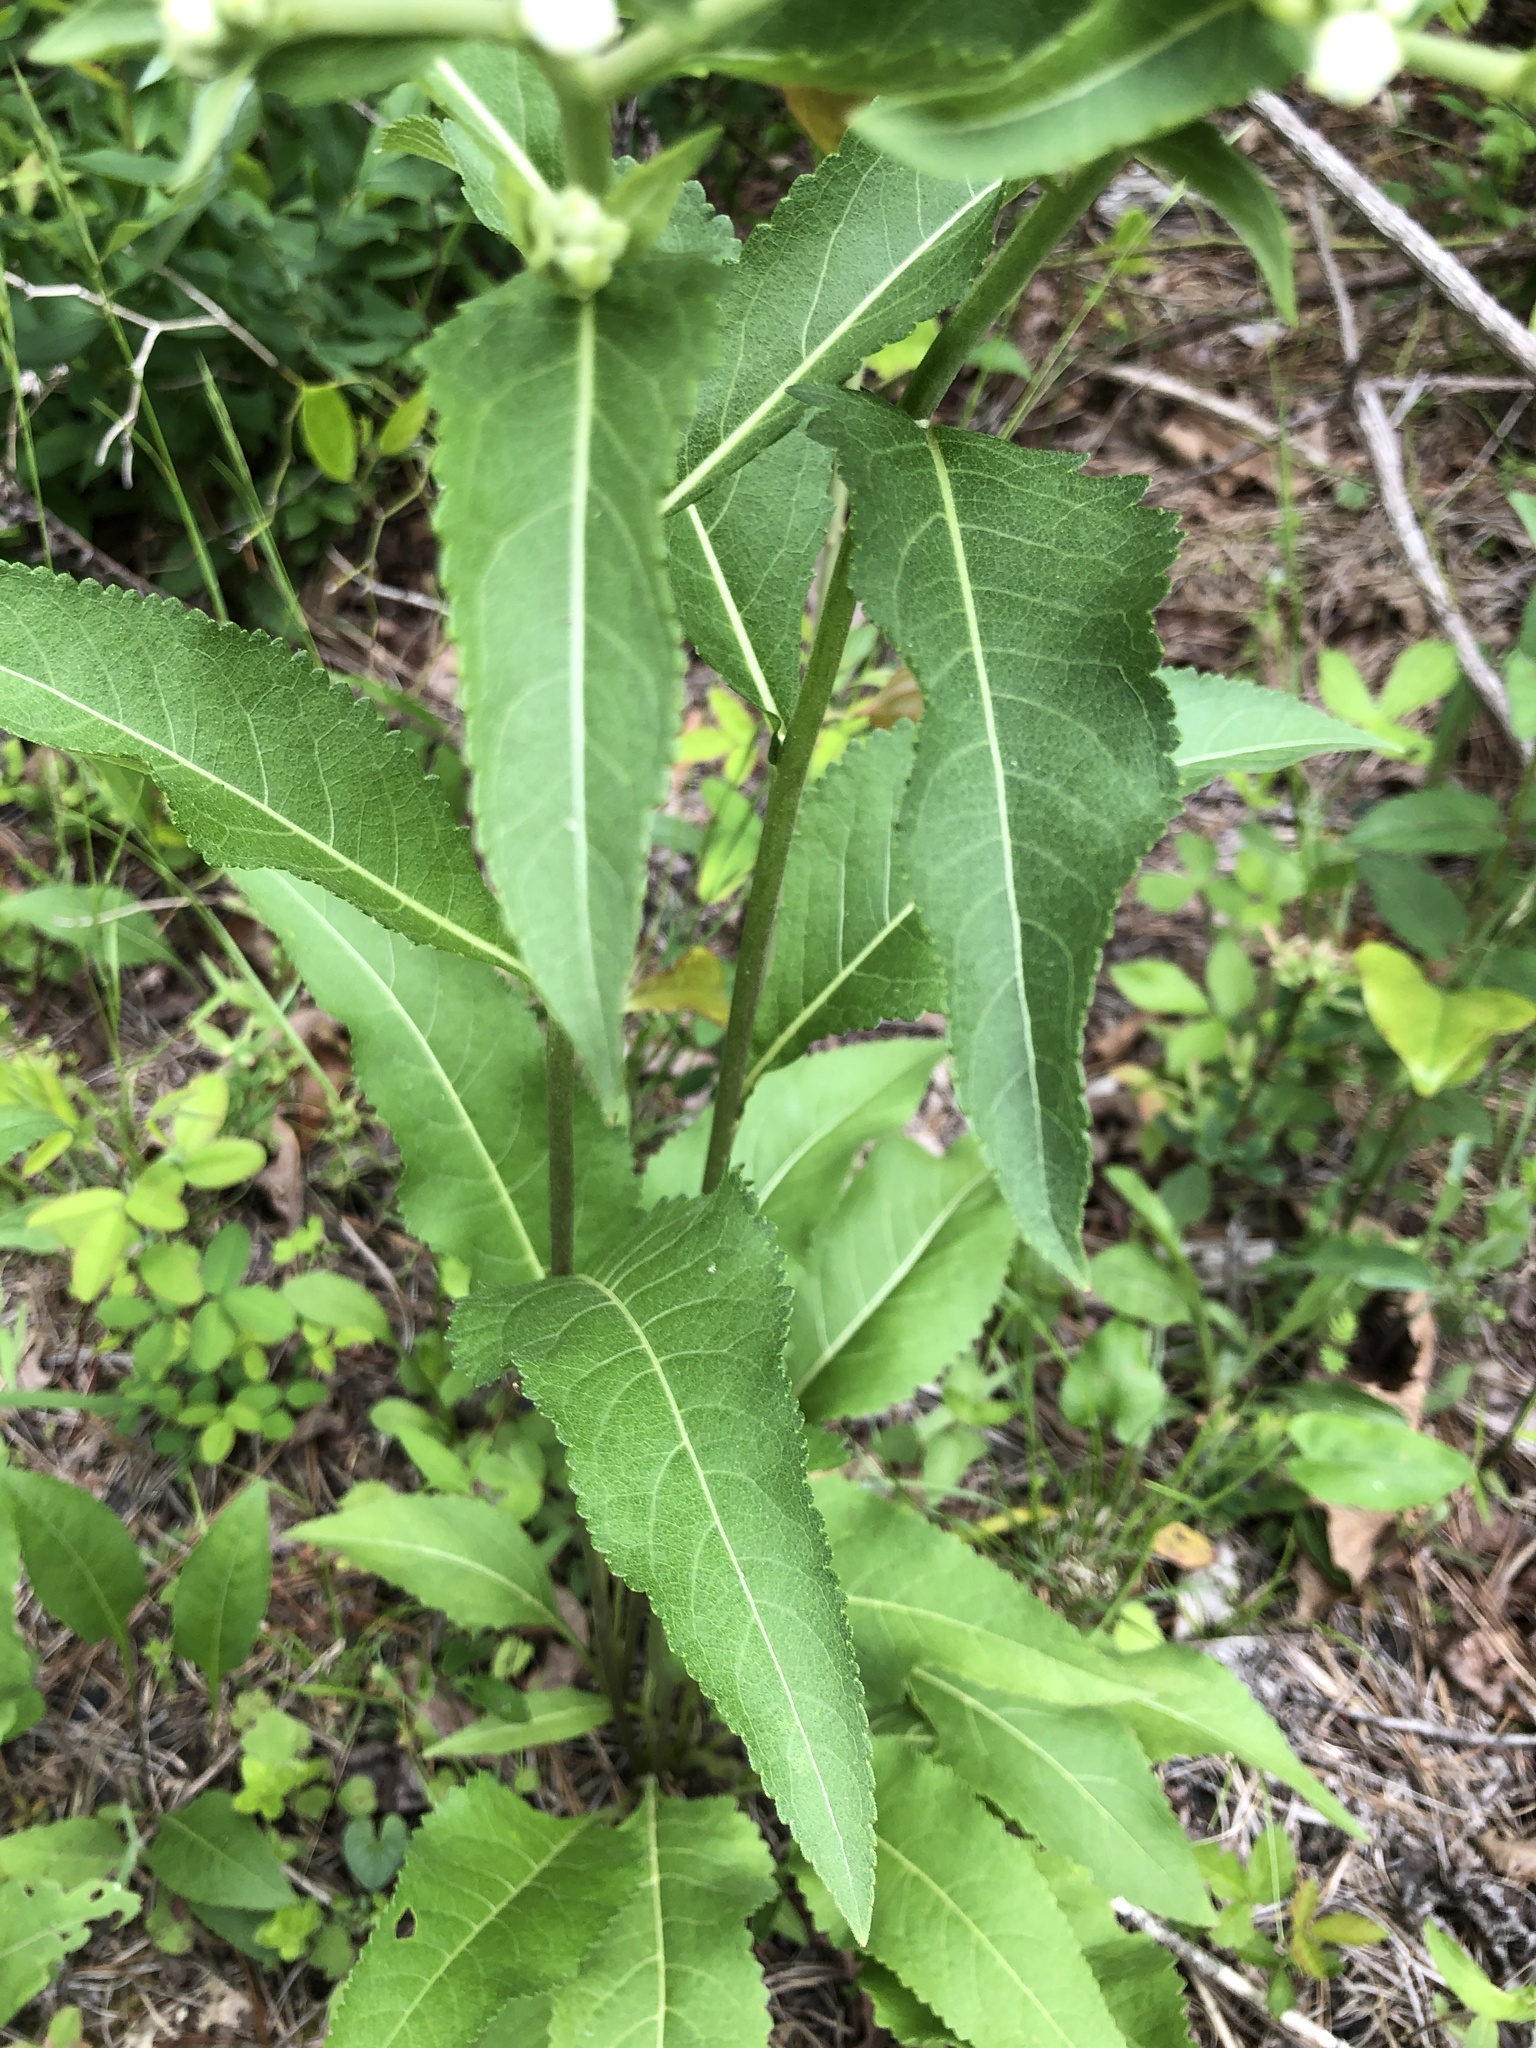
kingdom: Plantae
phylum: Tracheophyta
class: Magnoliopsida
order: Asterales
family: Asteraceae
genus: Parthenium
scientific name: Parthenium integrifolium
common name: American feverfew
